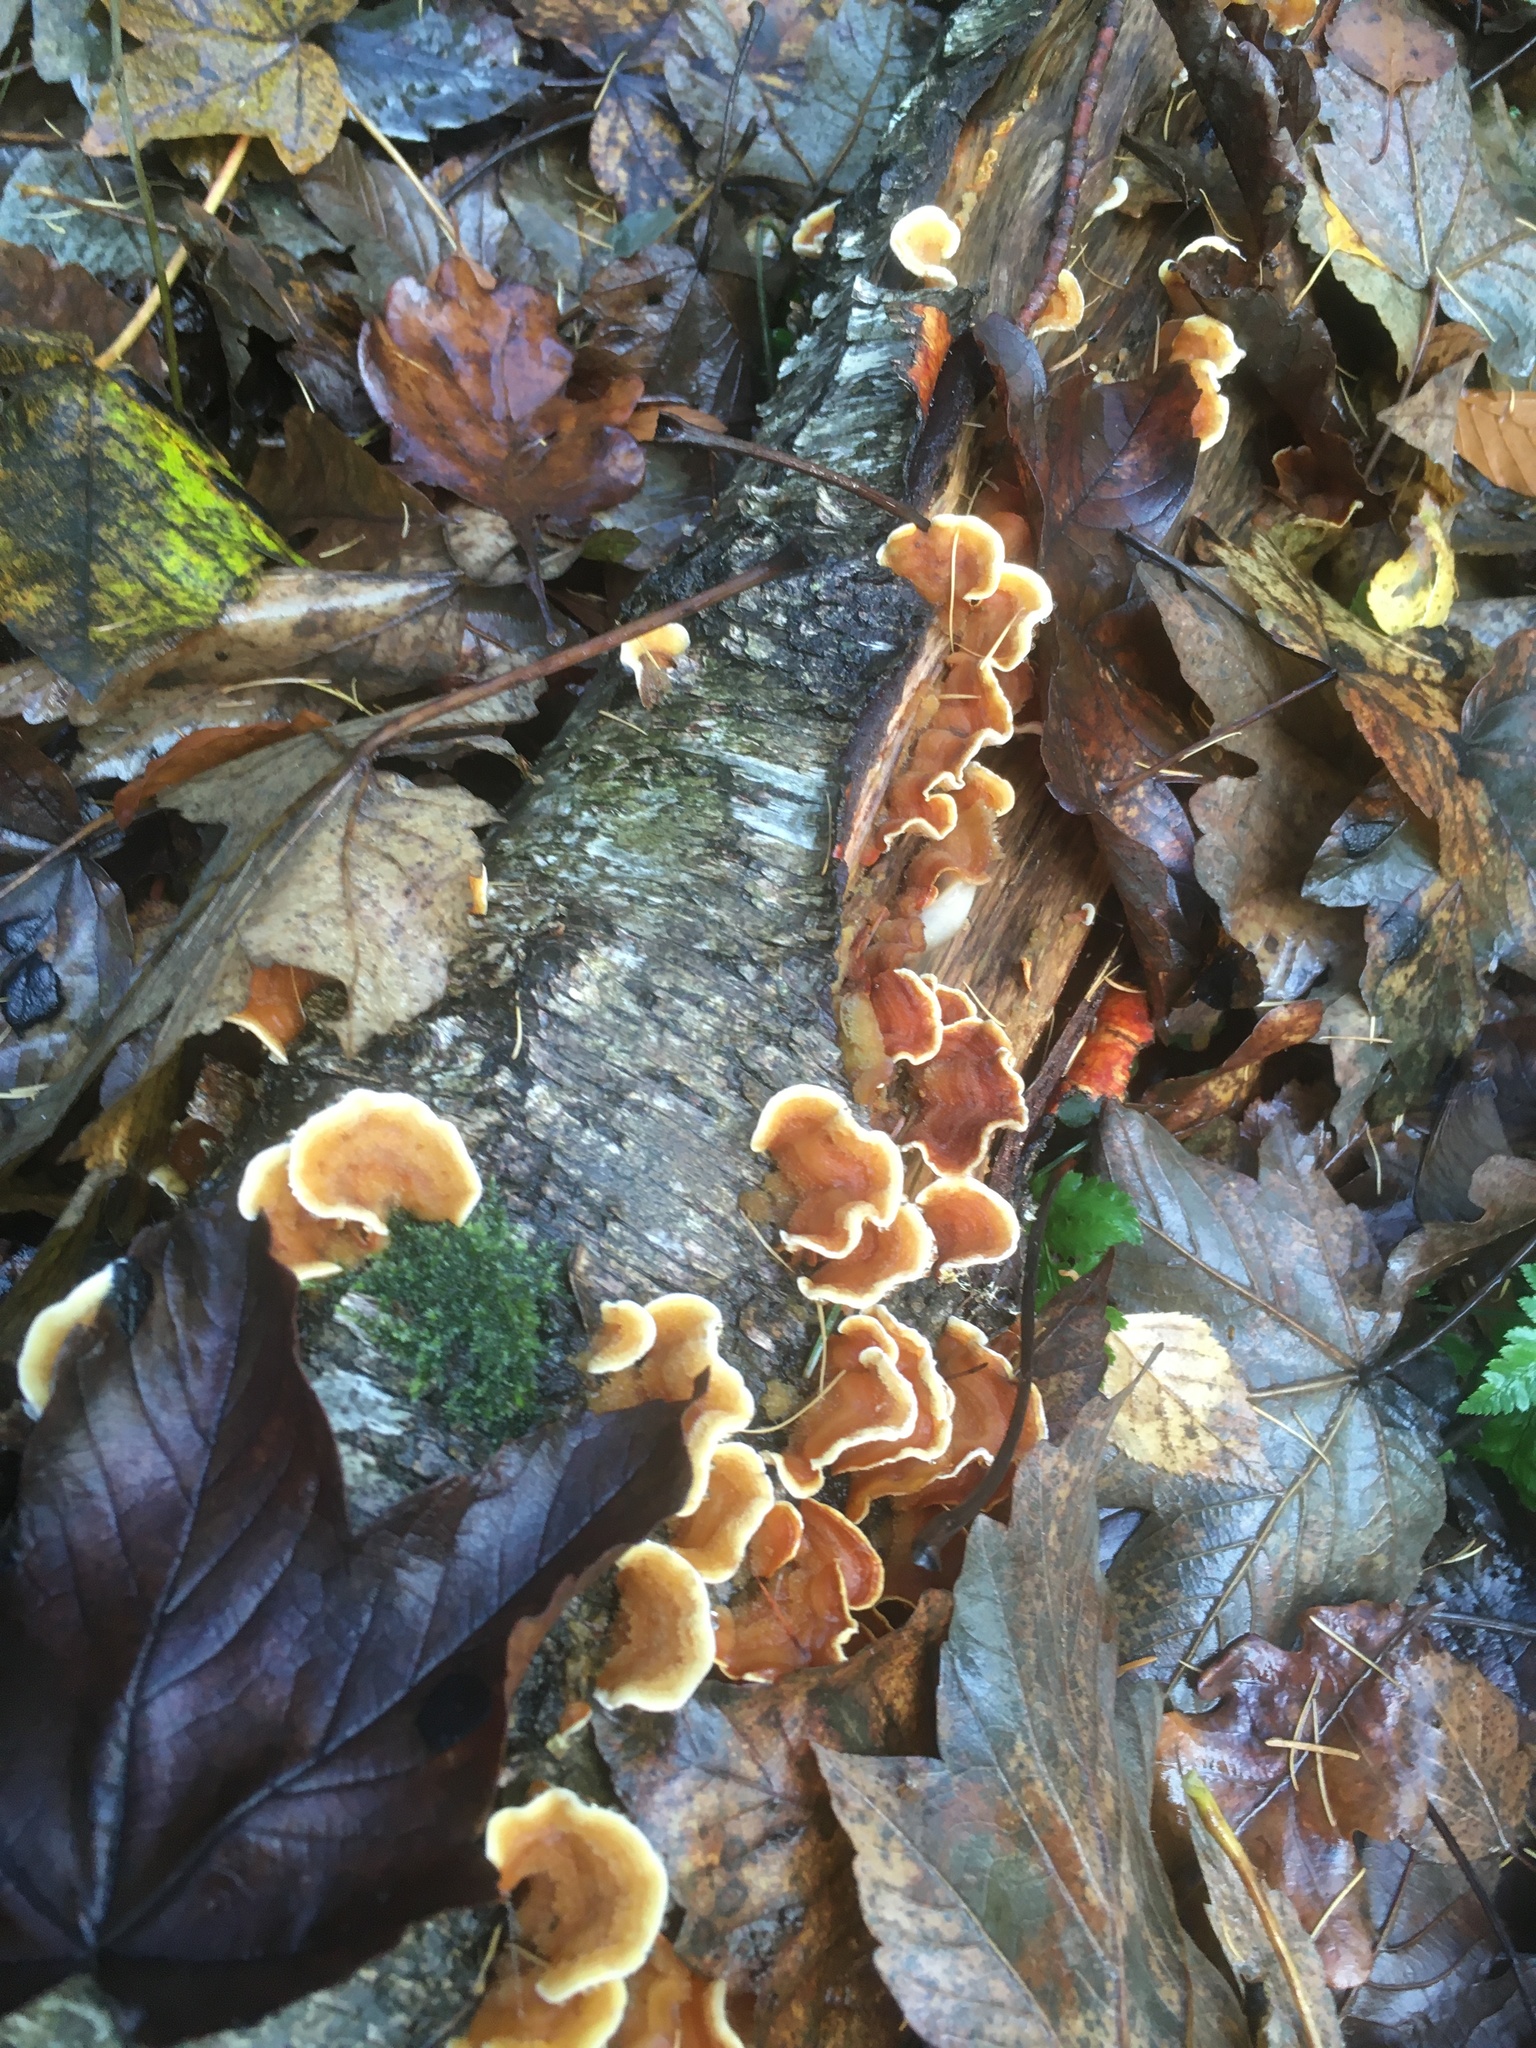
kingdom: Fungi
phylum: Basidiomycota
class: Agaricomycetes
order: Russulales
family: Stereaceae
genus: Stereum
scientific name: Stereum hirsutum
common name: Hairy curtain crust
